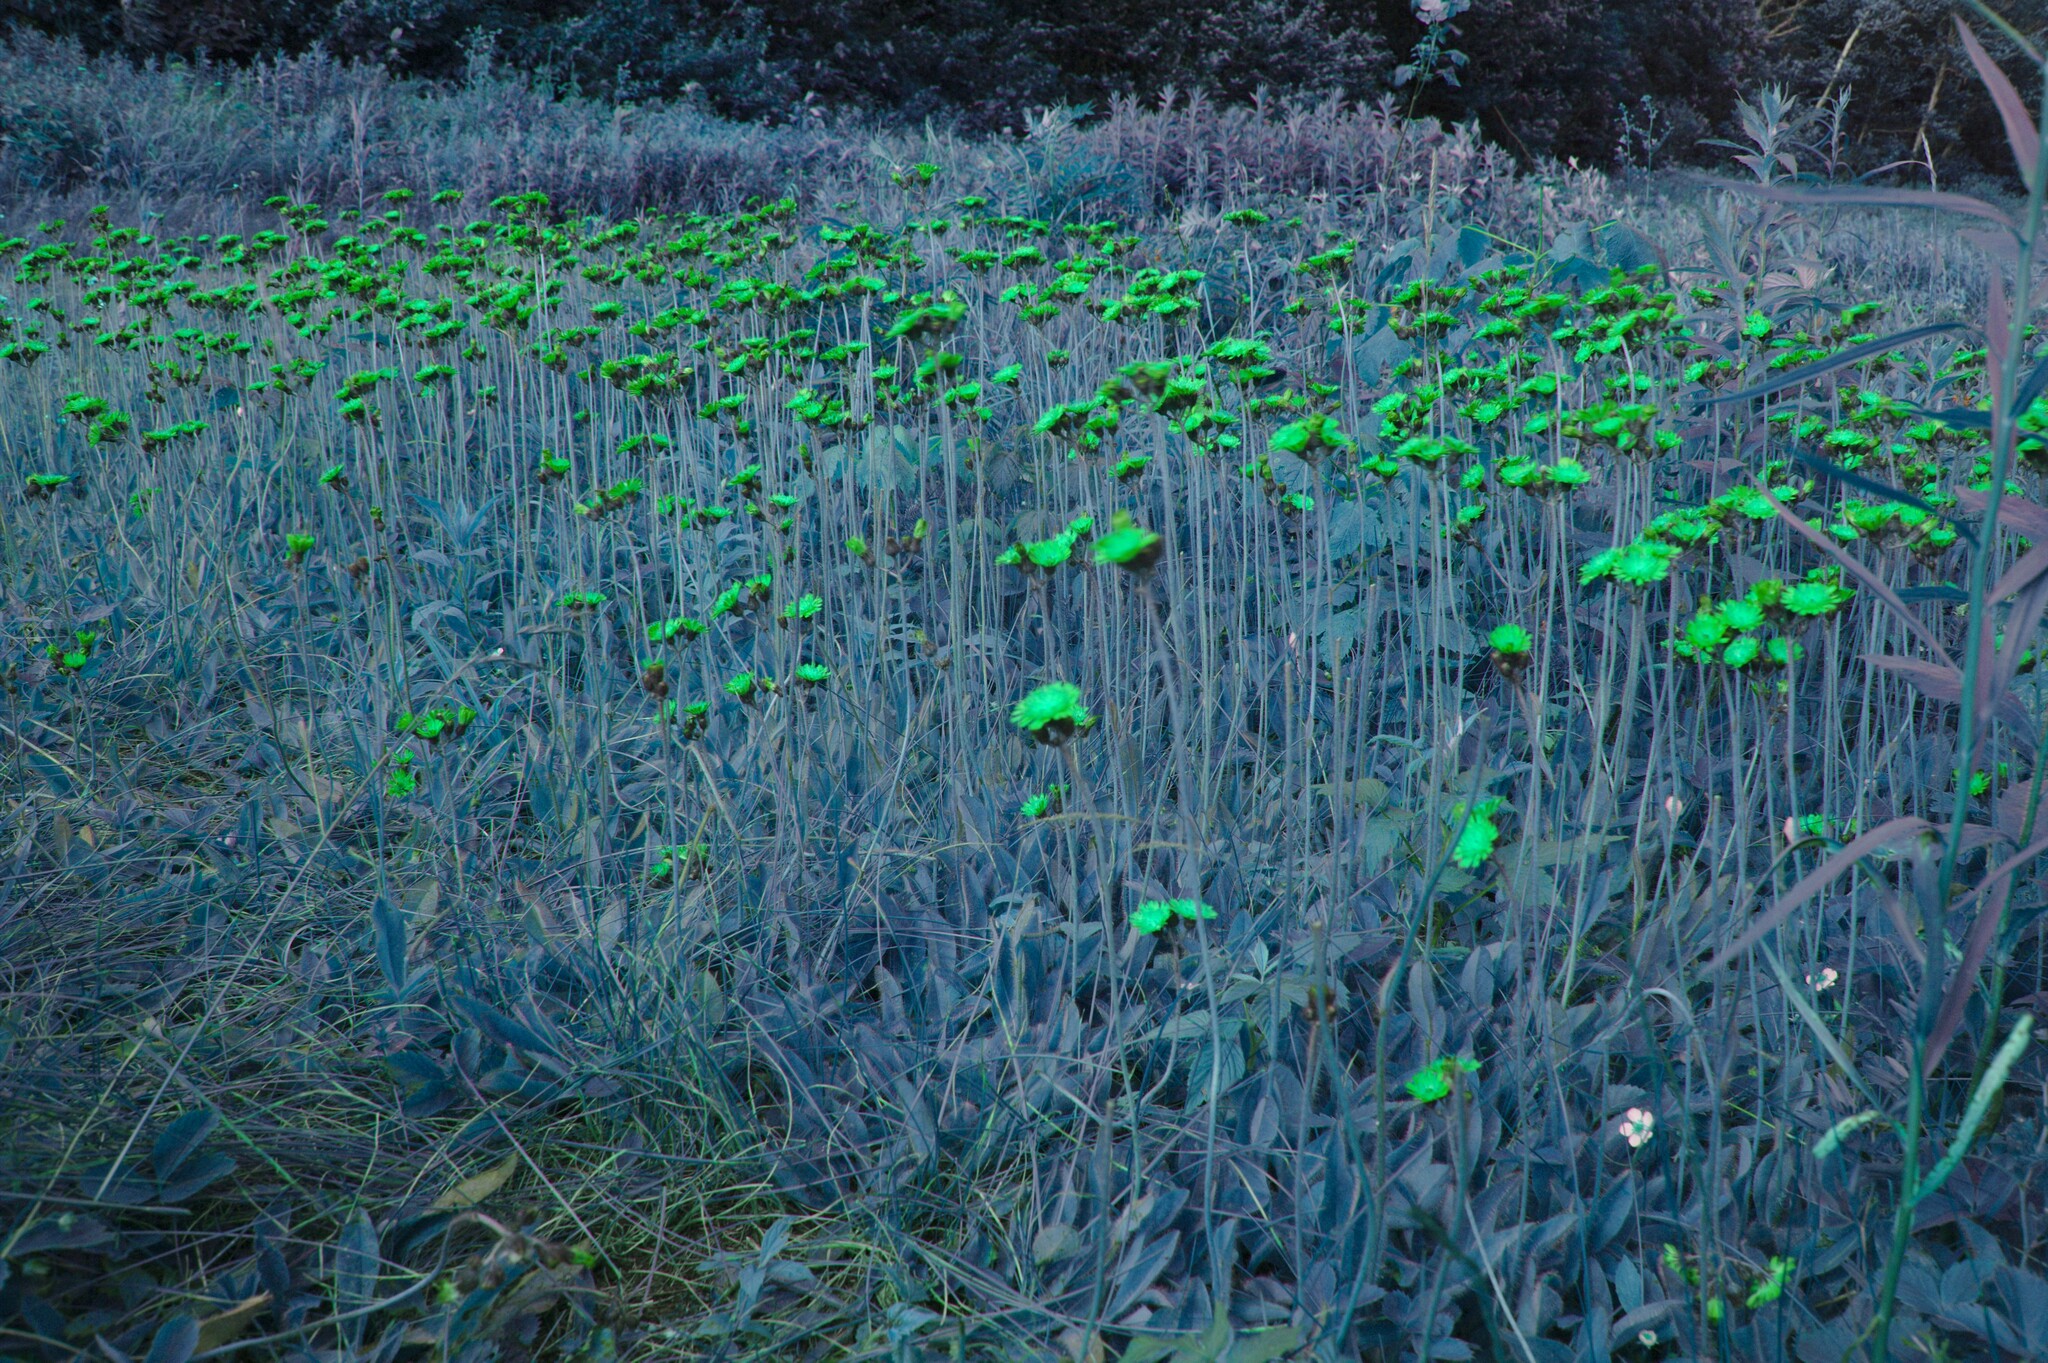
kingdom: Plantae
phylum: Tracheophyta
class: Magnoliopsida
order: Asterales
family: Asteraceae
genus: Pilosella
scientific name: Pilosella aurantiaca
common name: Fox-and-cubs
